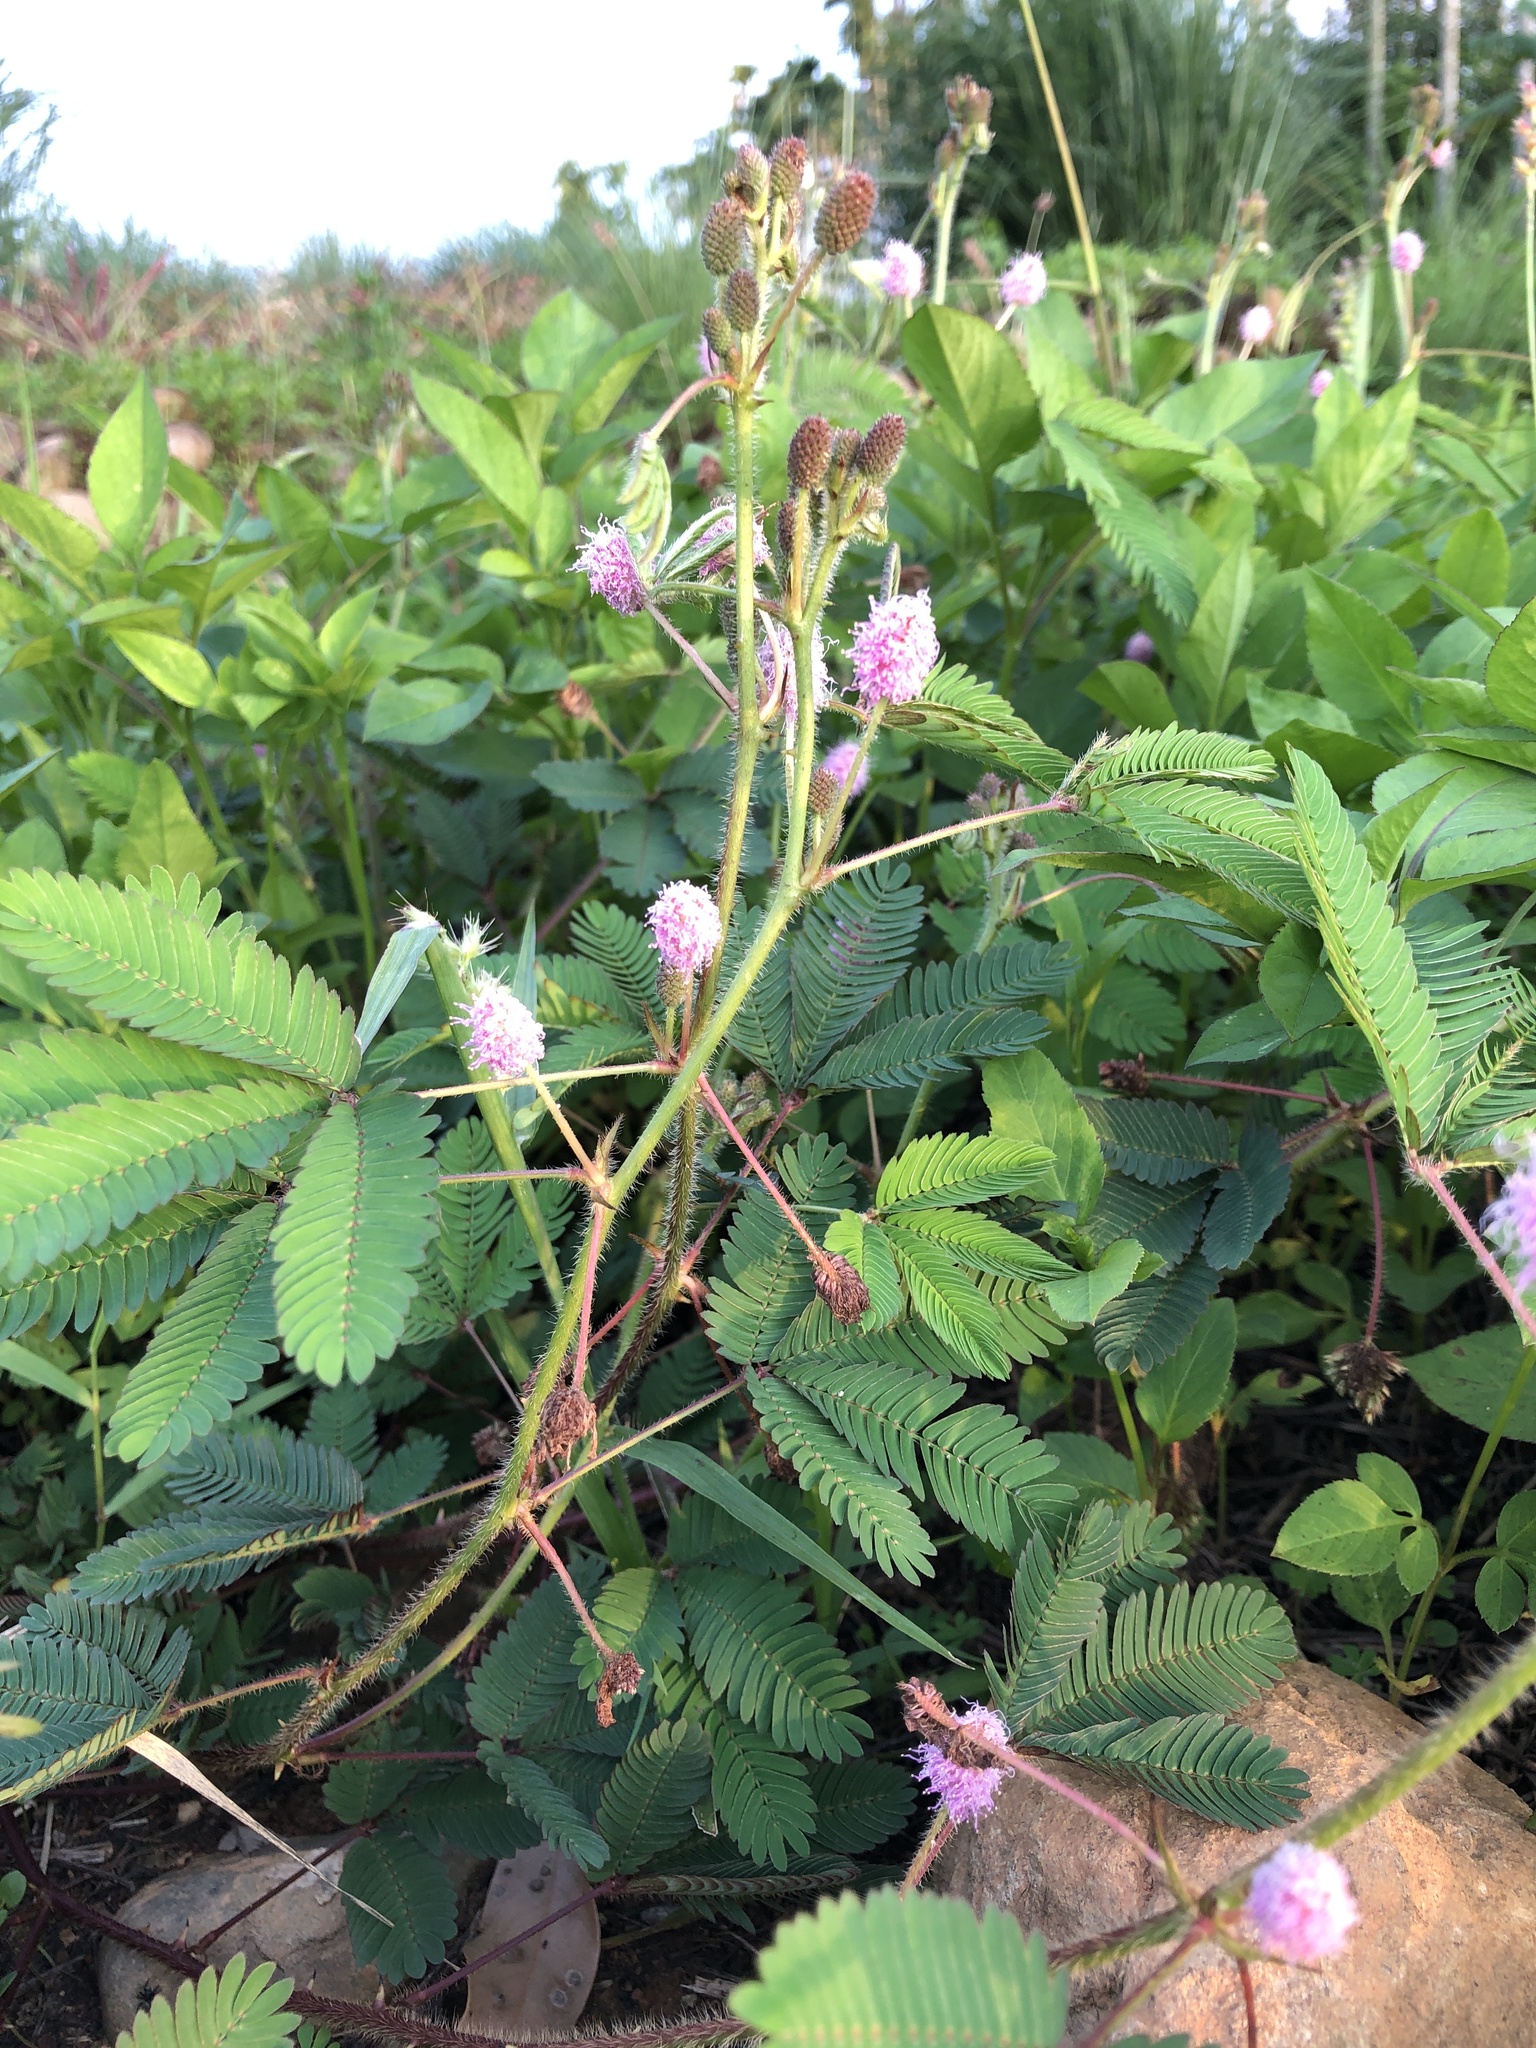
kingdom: Plantae
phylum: Tracheophyta
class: Magnoliopsida
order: Fabales
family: Fabaceae
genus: Mimosa
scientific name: Mimosa pudica
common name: Sensitive plant
